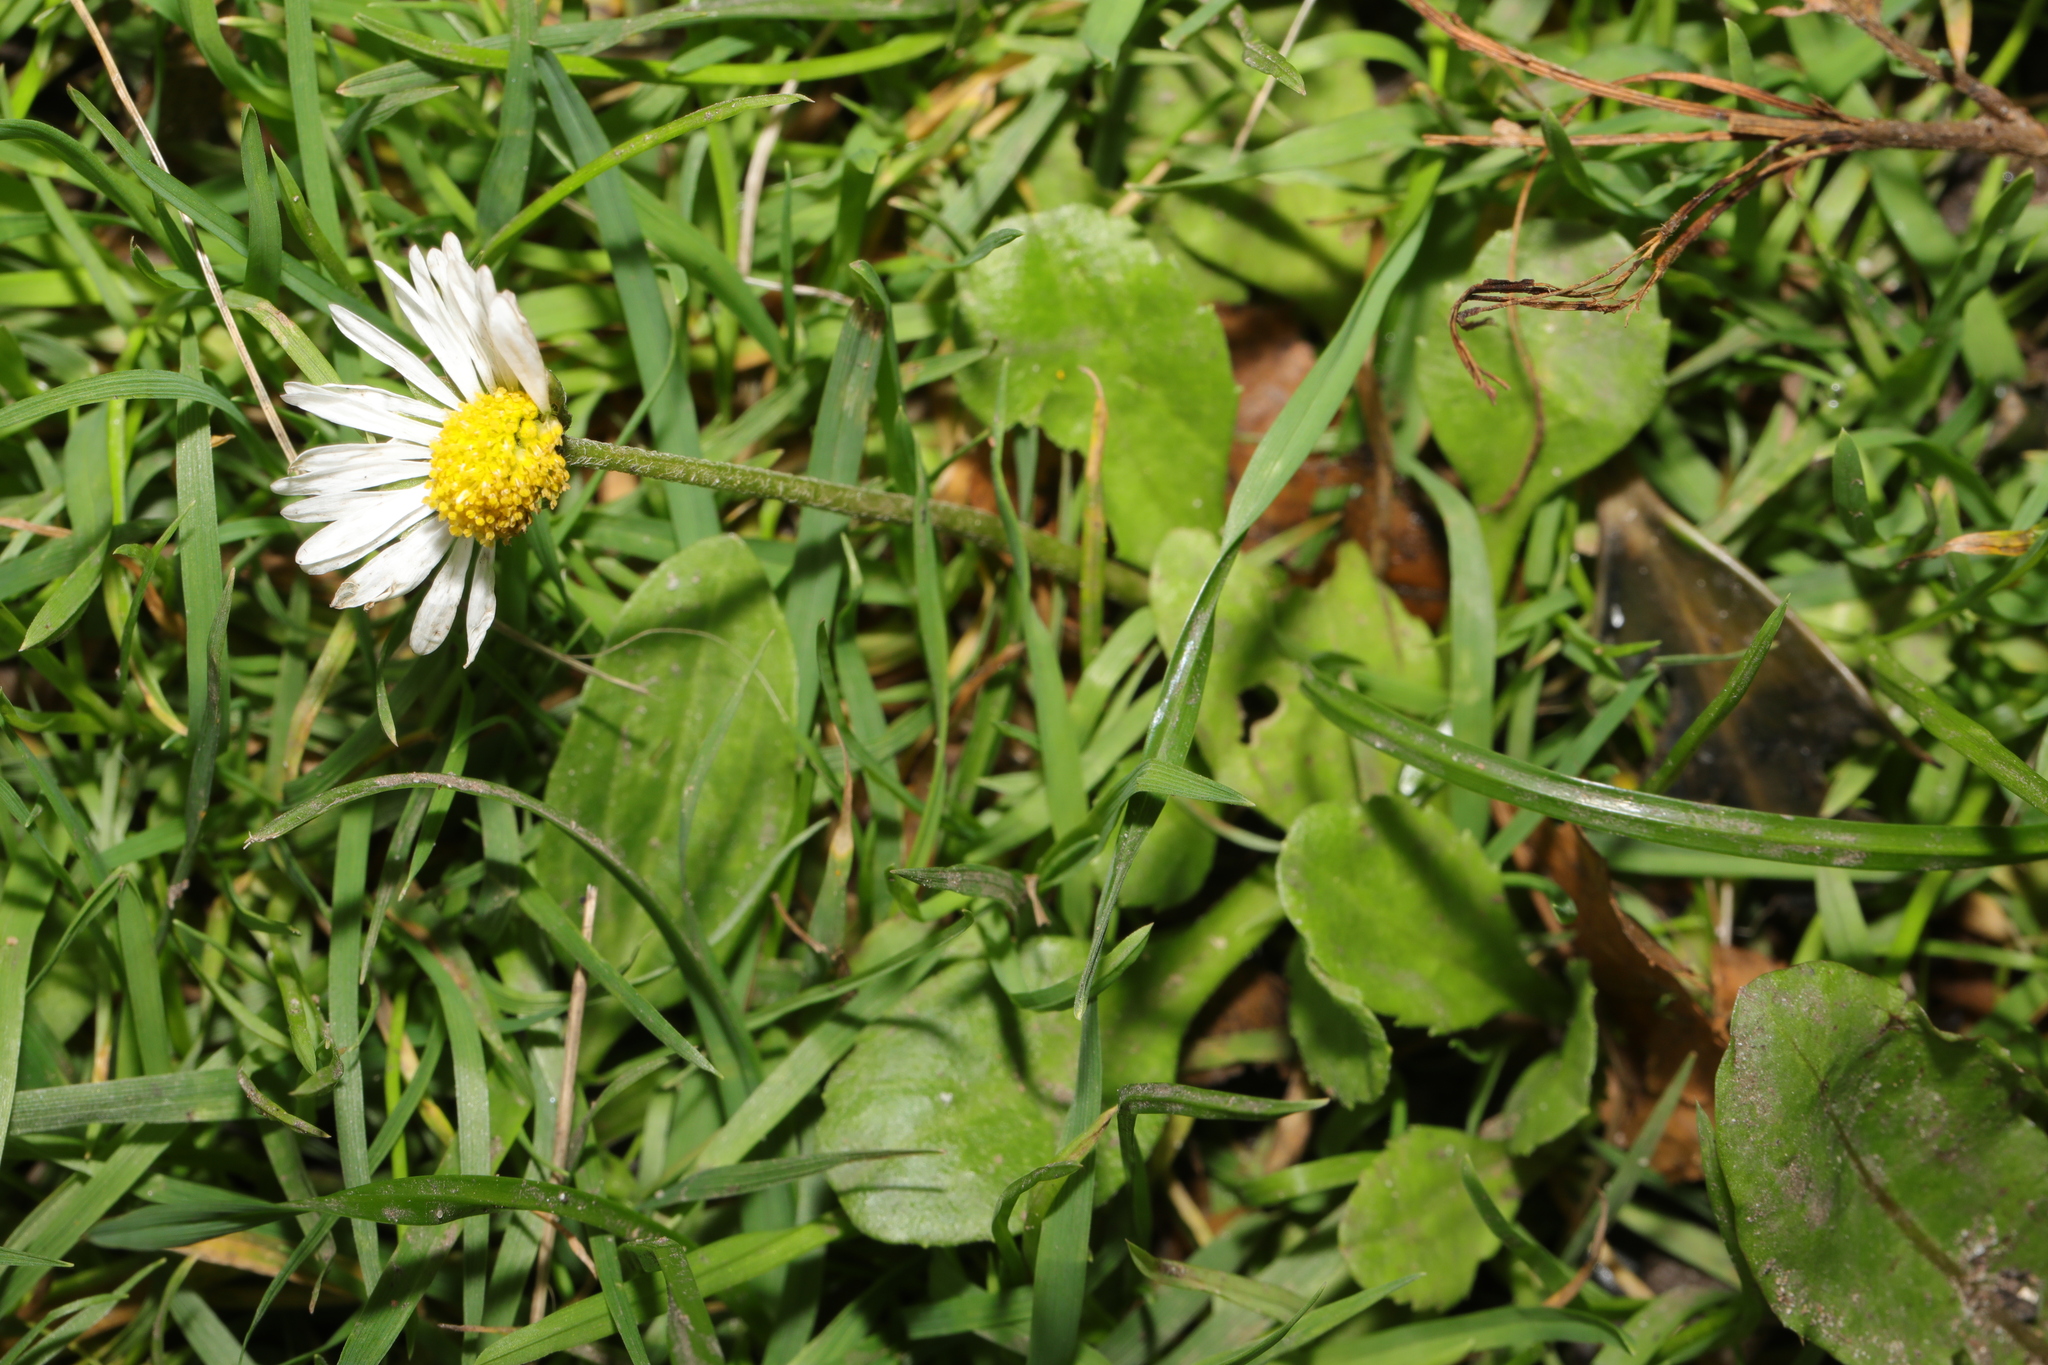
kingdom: Plantae
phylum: Tracheophyta
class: Magnoliopsida
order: Asterales
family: Asteraceae
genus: Bellis
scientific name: Bellis perennis
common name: Lawndaisy
